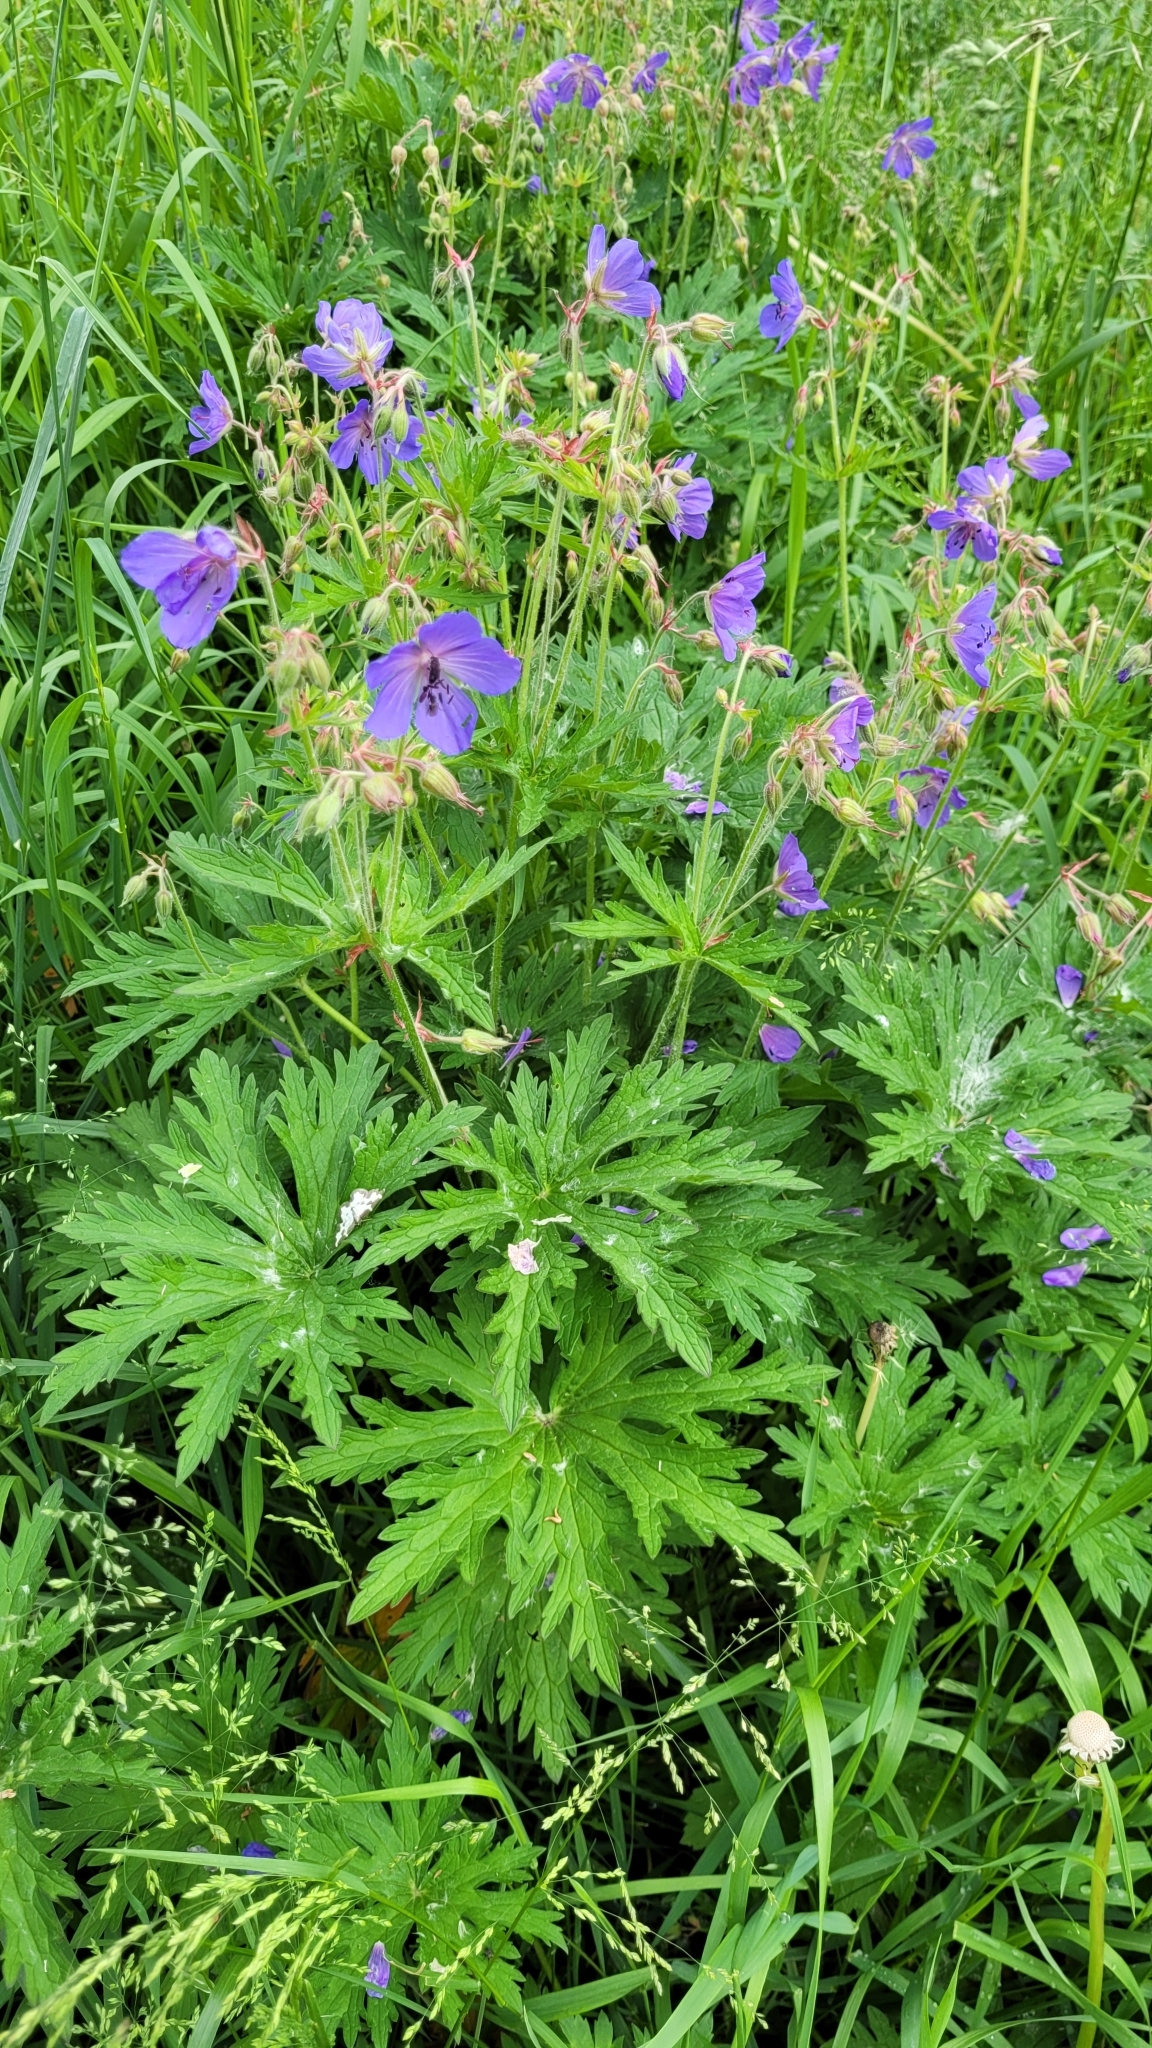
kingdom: Plantae
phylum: Tracheophyta
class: Magnoliopsida
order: Geraniales
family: Geraniaceae
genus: Geranium
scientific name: Geranium pratense
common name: Meadow crane's-bill
